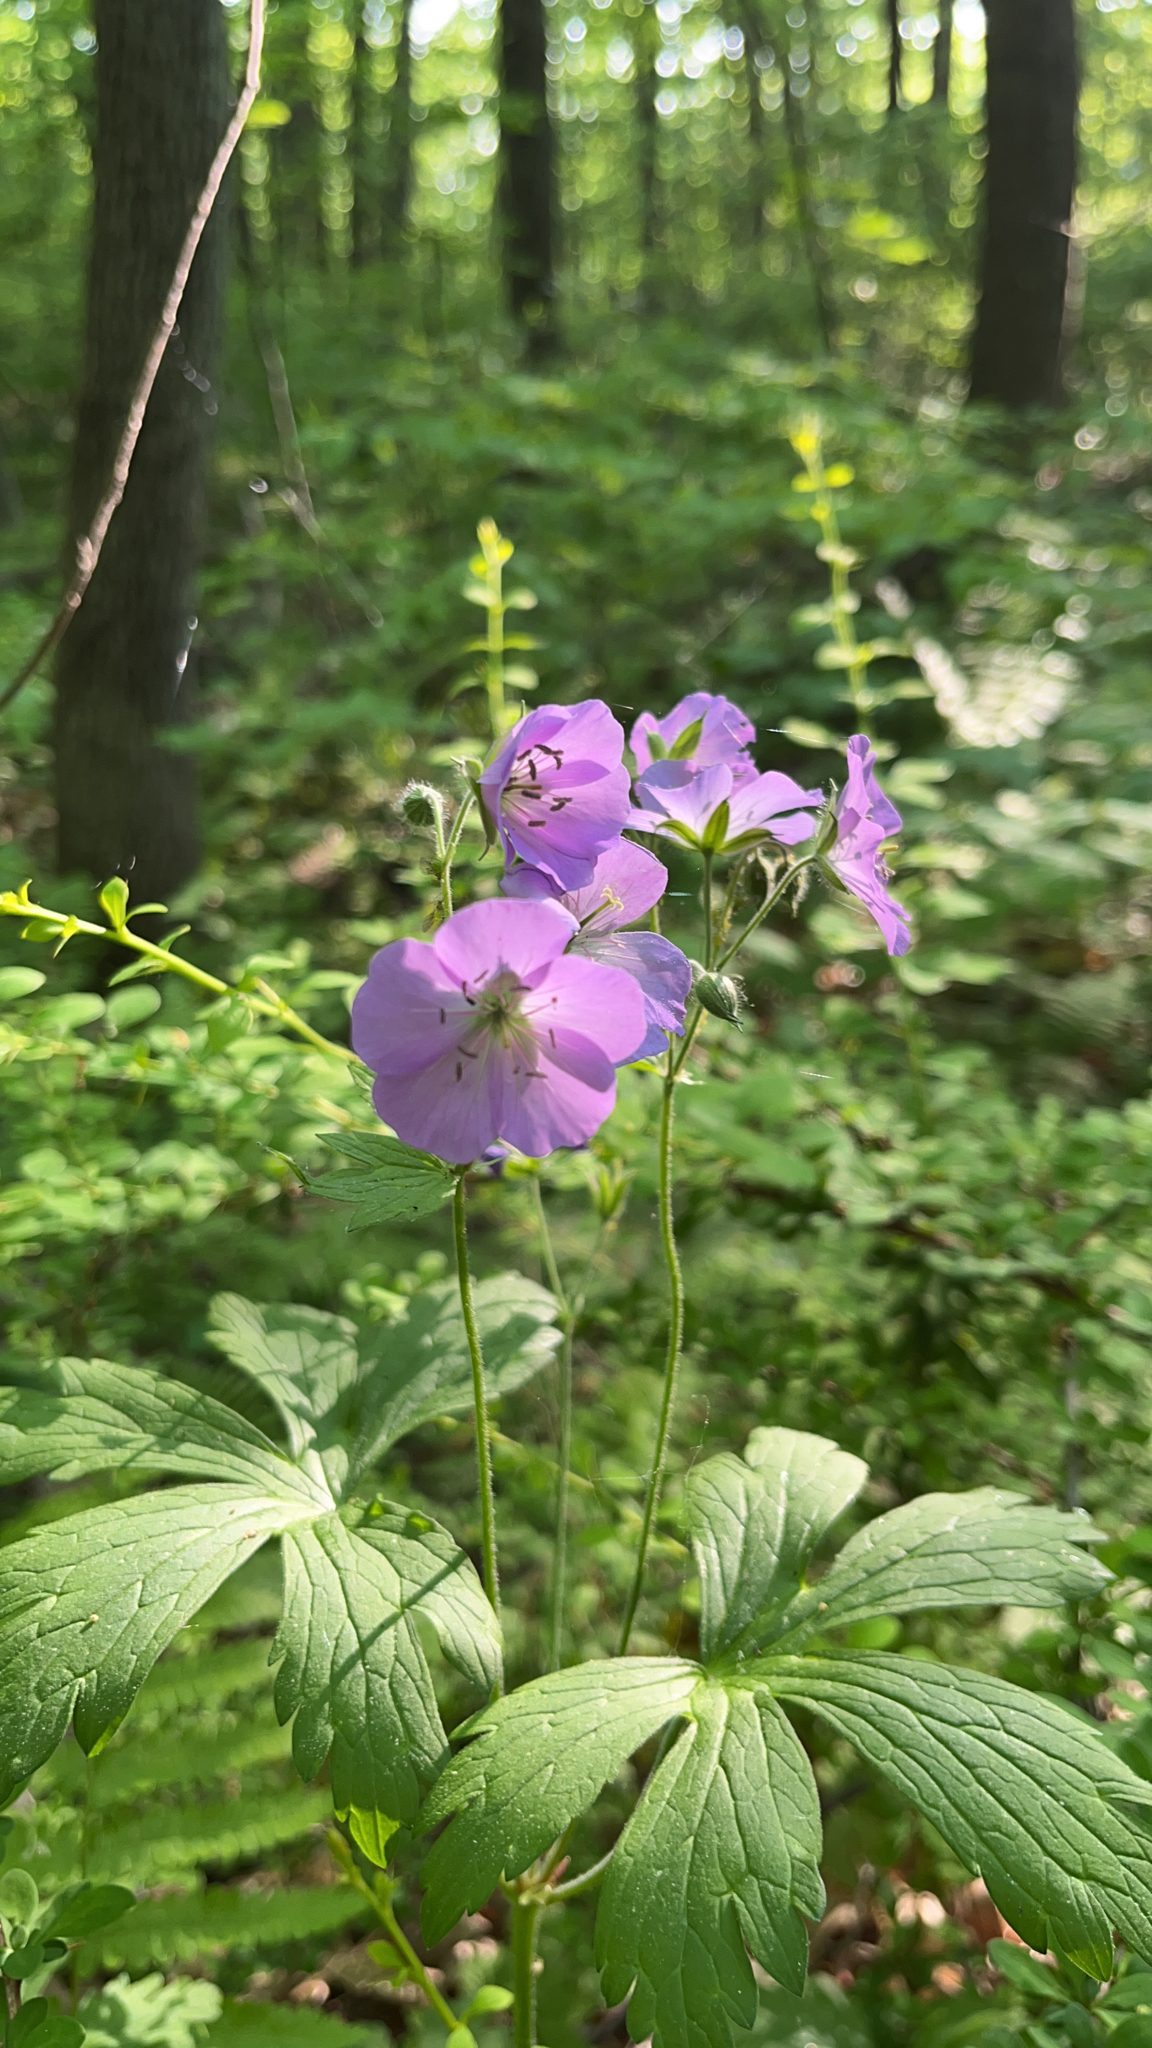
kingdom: Plantae
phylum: Tracheophyta
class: Magnoliopsida
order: Geraniales
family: Geraniaceae
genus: Geranium
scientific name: Geranium maculatum
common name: Spotted geranium
